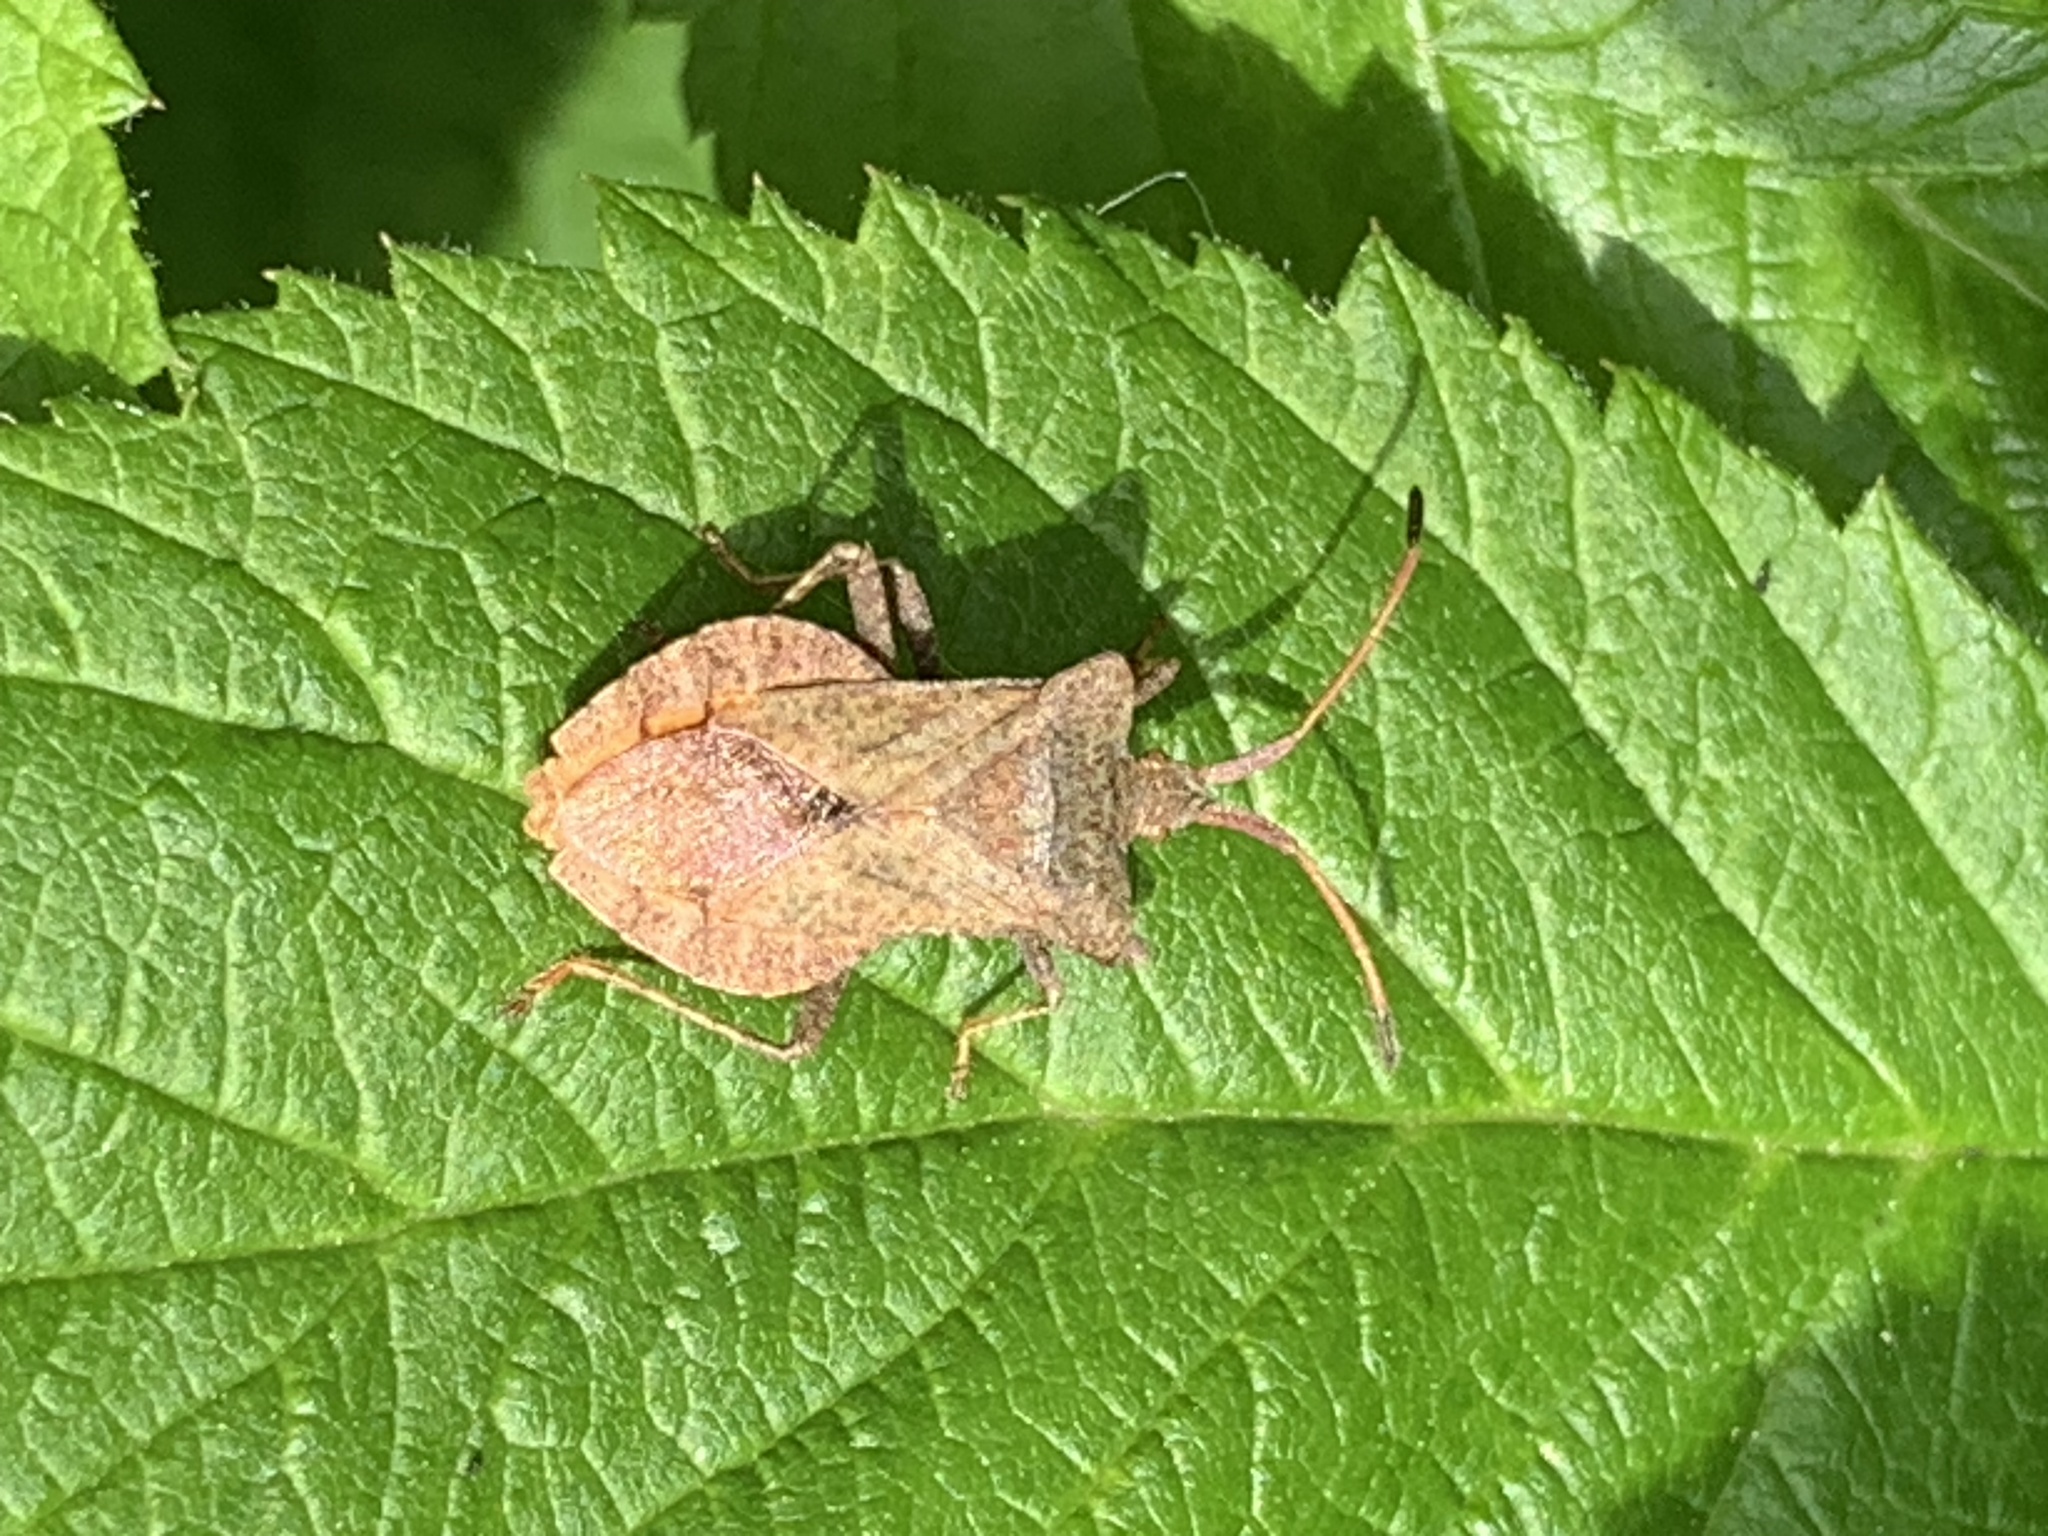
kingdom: Animalia
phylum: Arthropoda
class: Insecta
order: Hemiptera
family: Coreidae
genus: Coreus
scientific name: Coreus marginatus
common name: Dock bug
